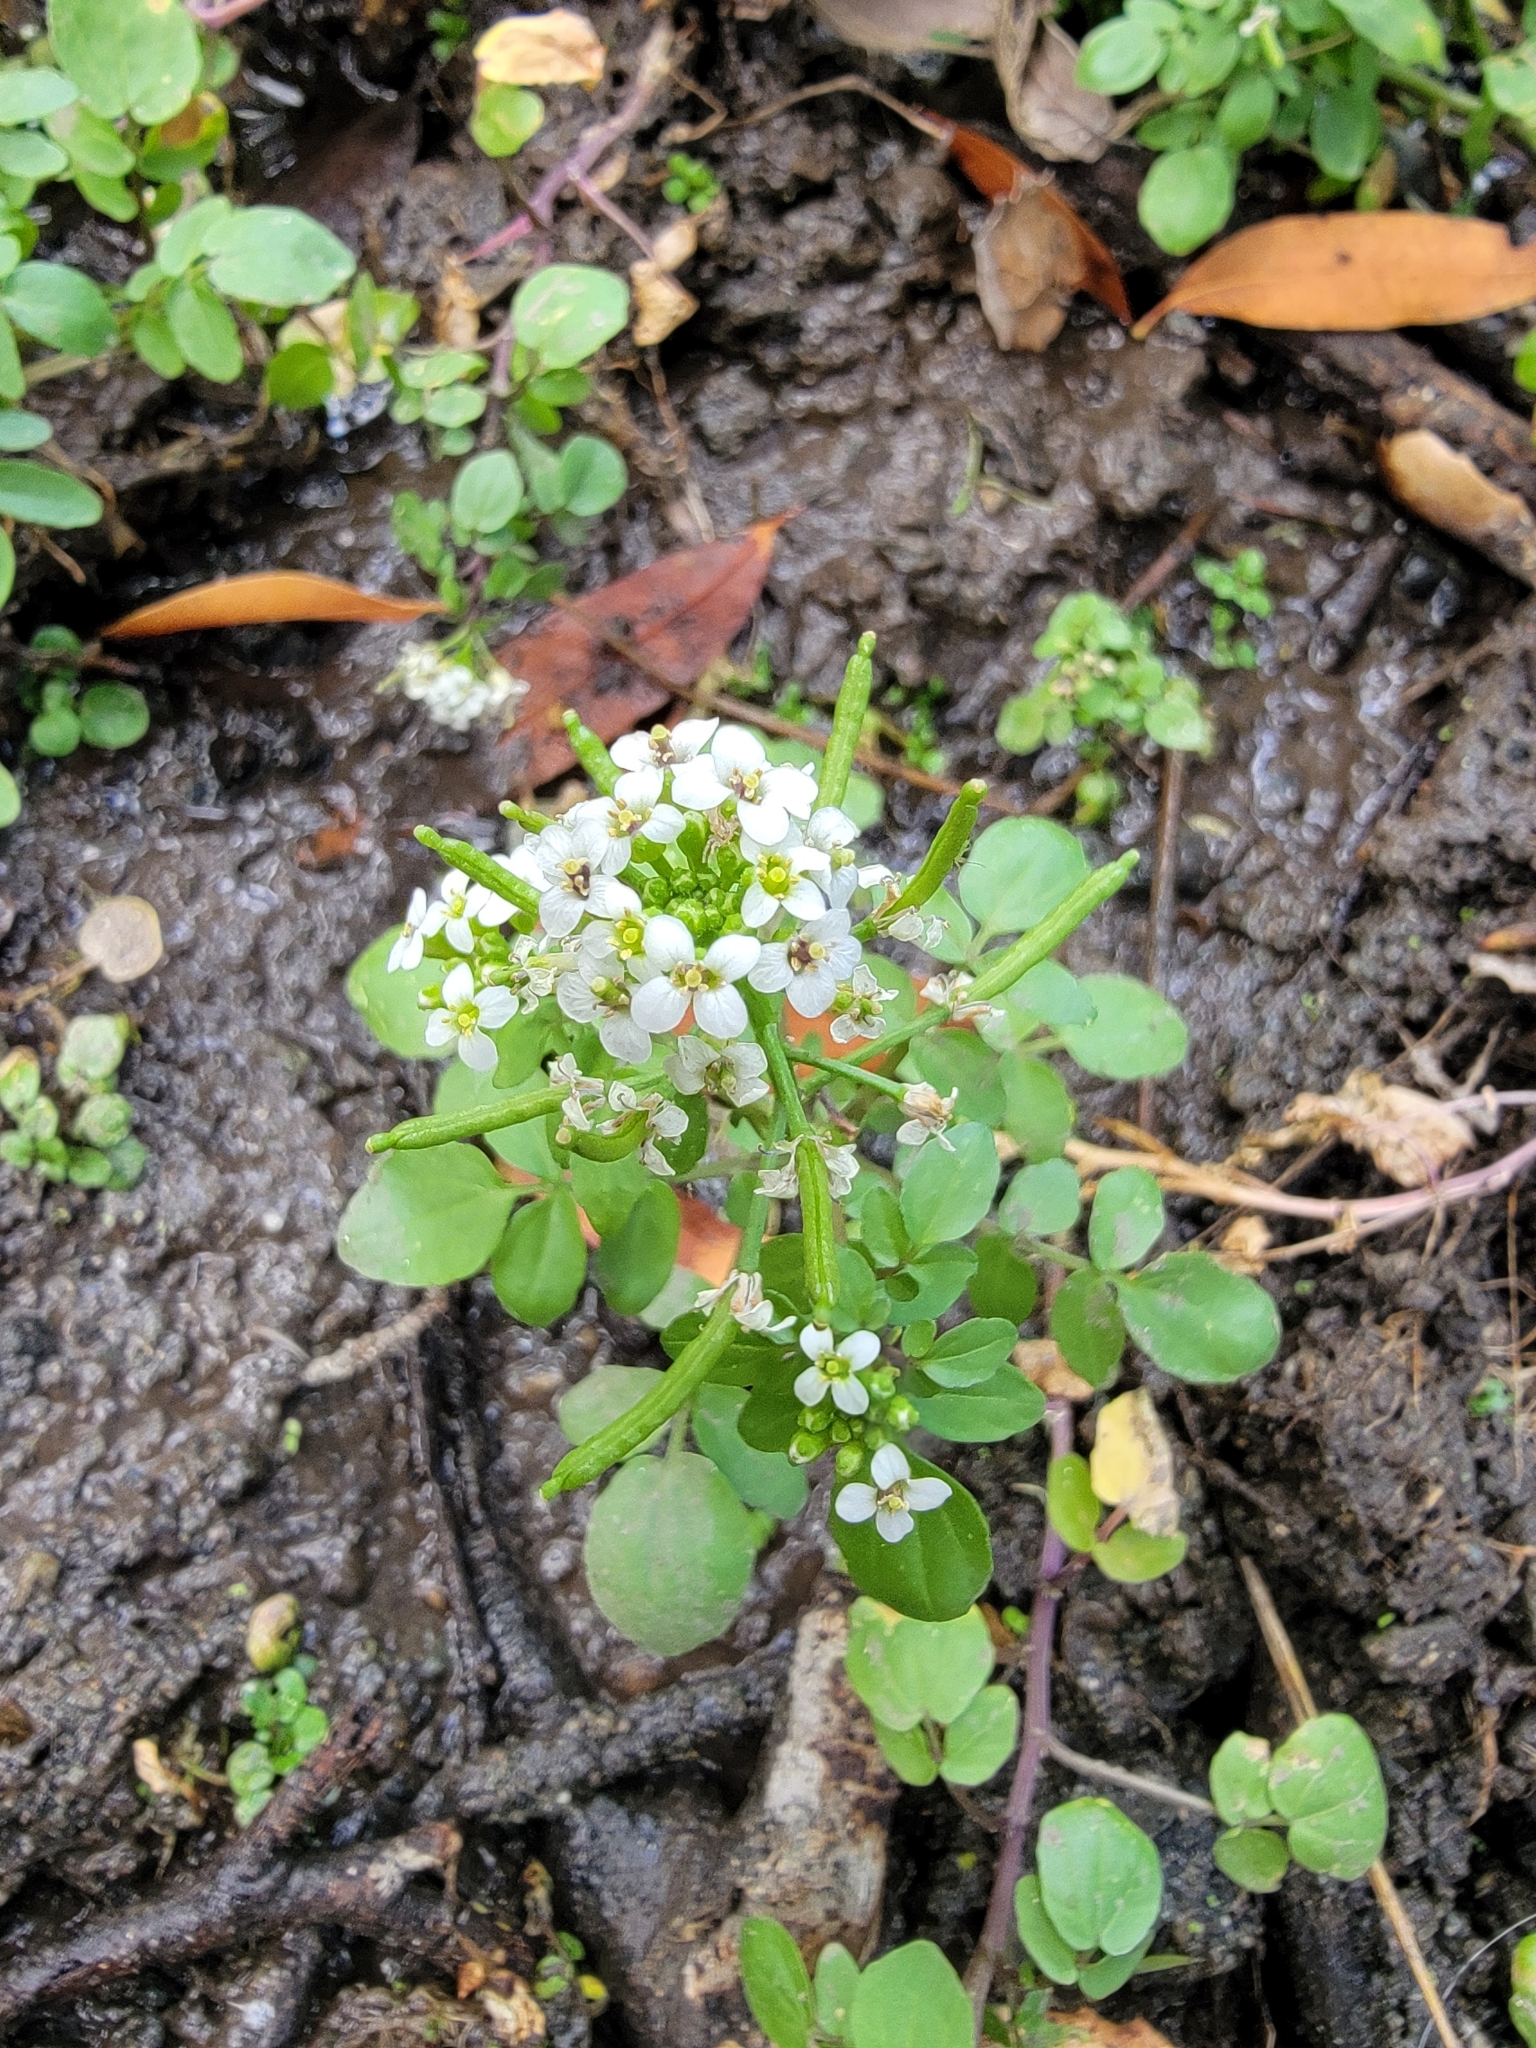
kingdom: Plantae
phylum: Tracheophyta
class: Magnoliopsida
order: Brassicales
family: Brassicaceae
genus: Nasturtium
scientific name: Nasturtium officinale
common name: Watercress
